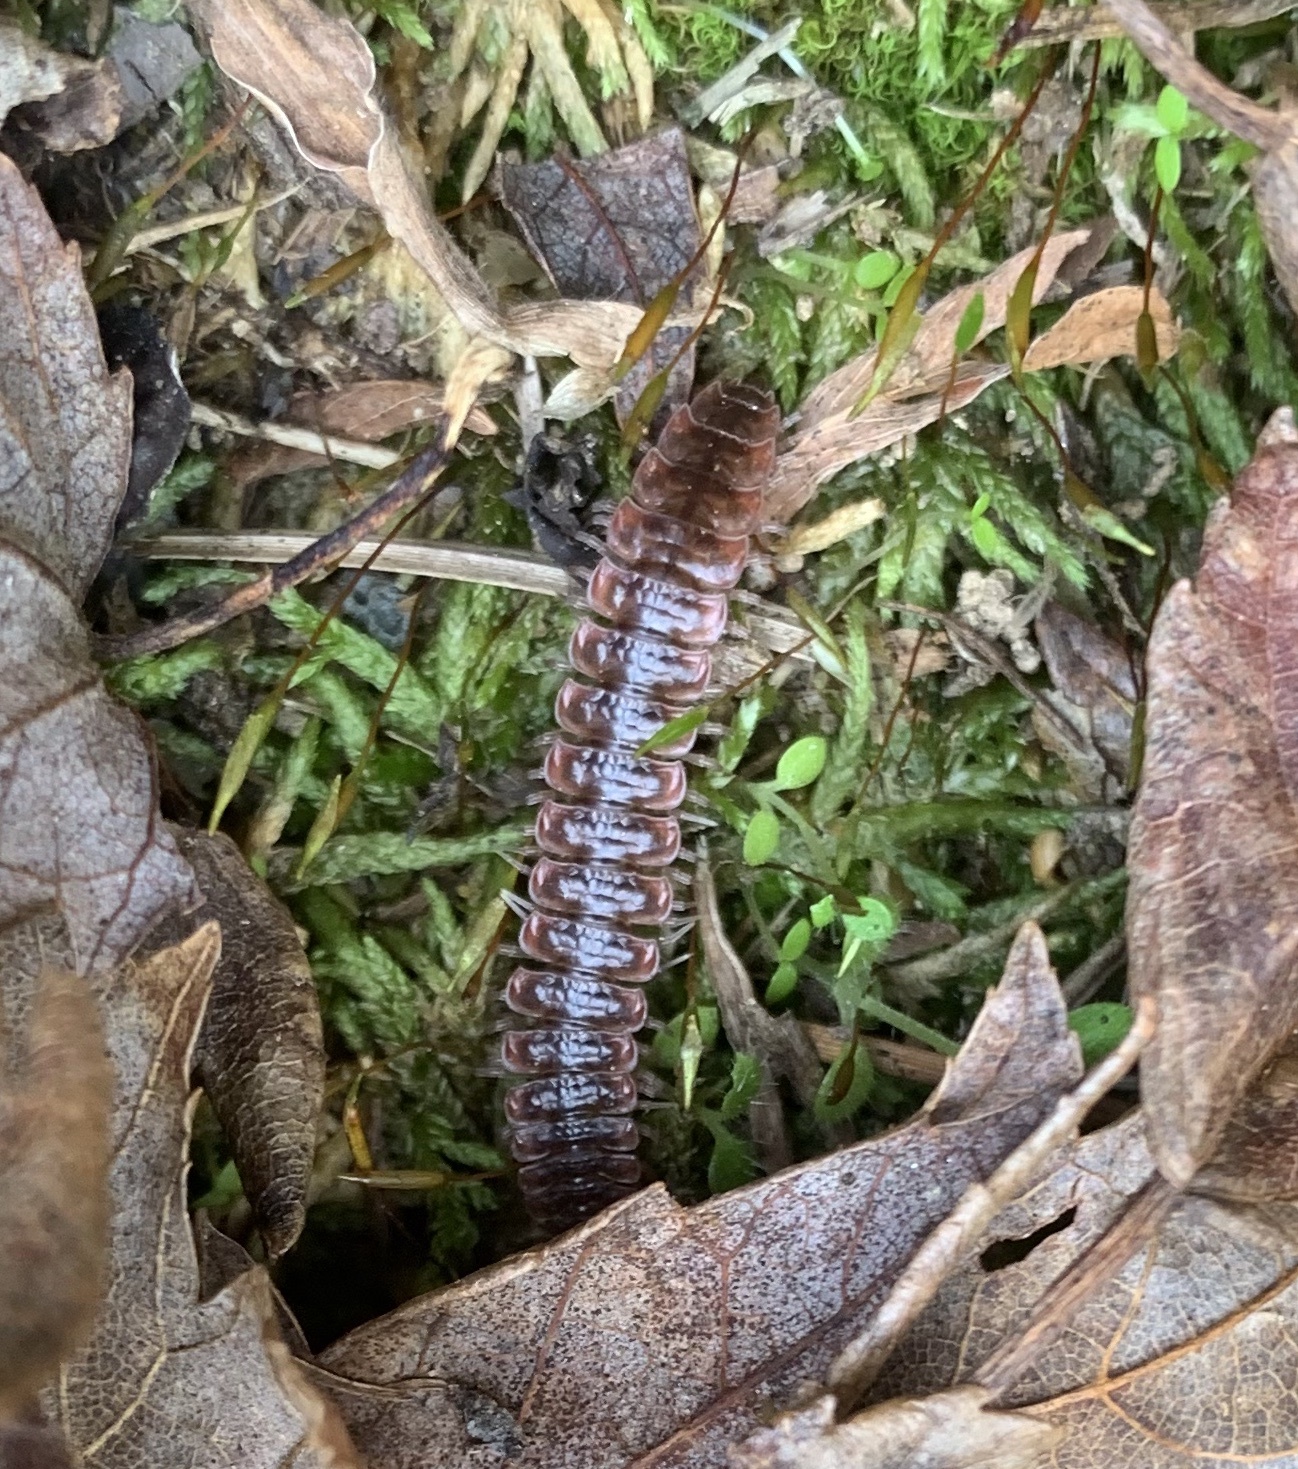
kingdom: Animalia
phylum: Arthropoda
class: Diplopoda
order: Polydesmida
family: Polydesmidae
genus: Pseudopolydesmus
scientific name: Pseudopolydesmus serratus
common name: Common pink flat-back millipede
